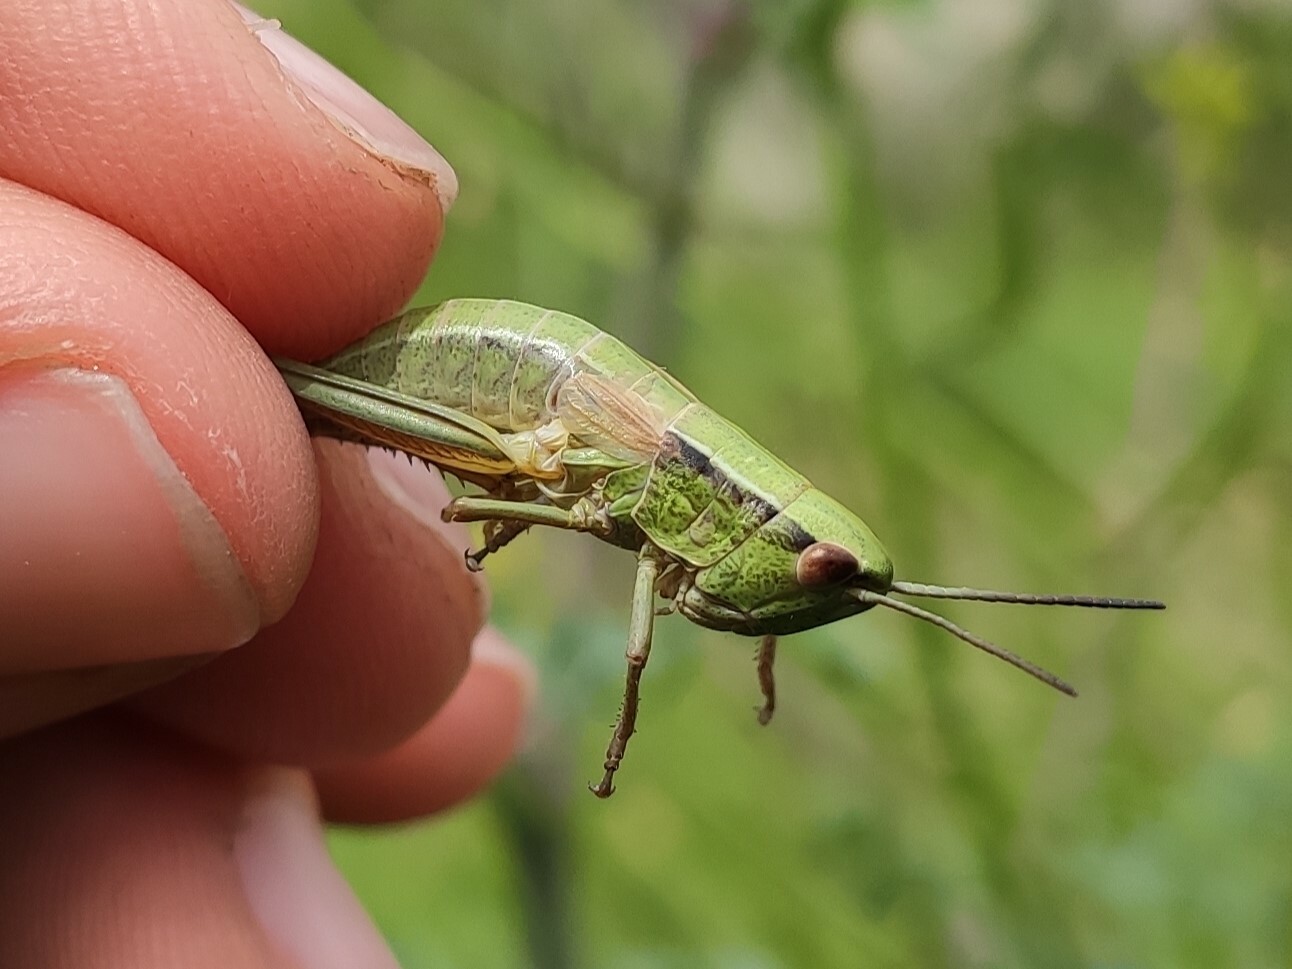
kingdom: Animalia
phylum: Arthropoda
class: Insecta
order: Orthoptera
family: Acrididae
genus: Euthystira
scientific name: Euthystira brachyptera
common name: Small gold grasshopper
